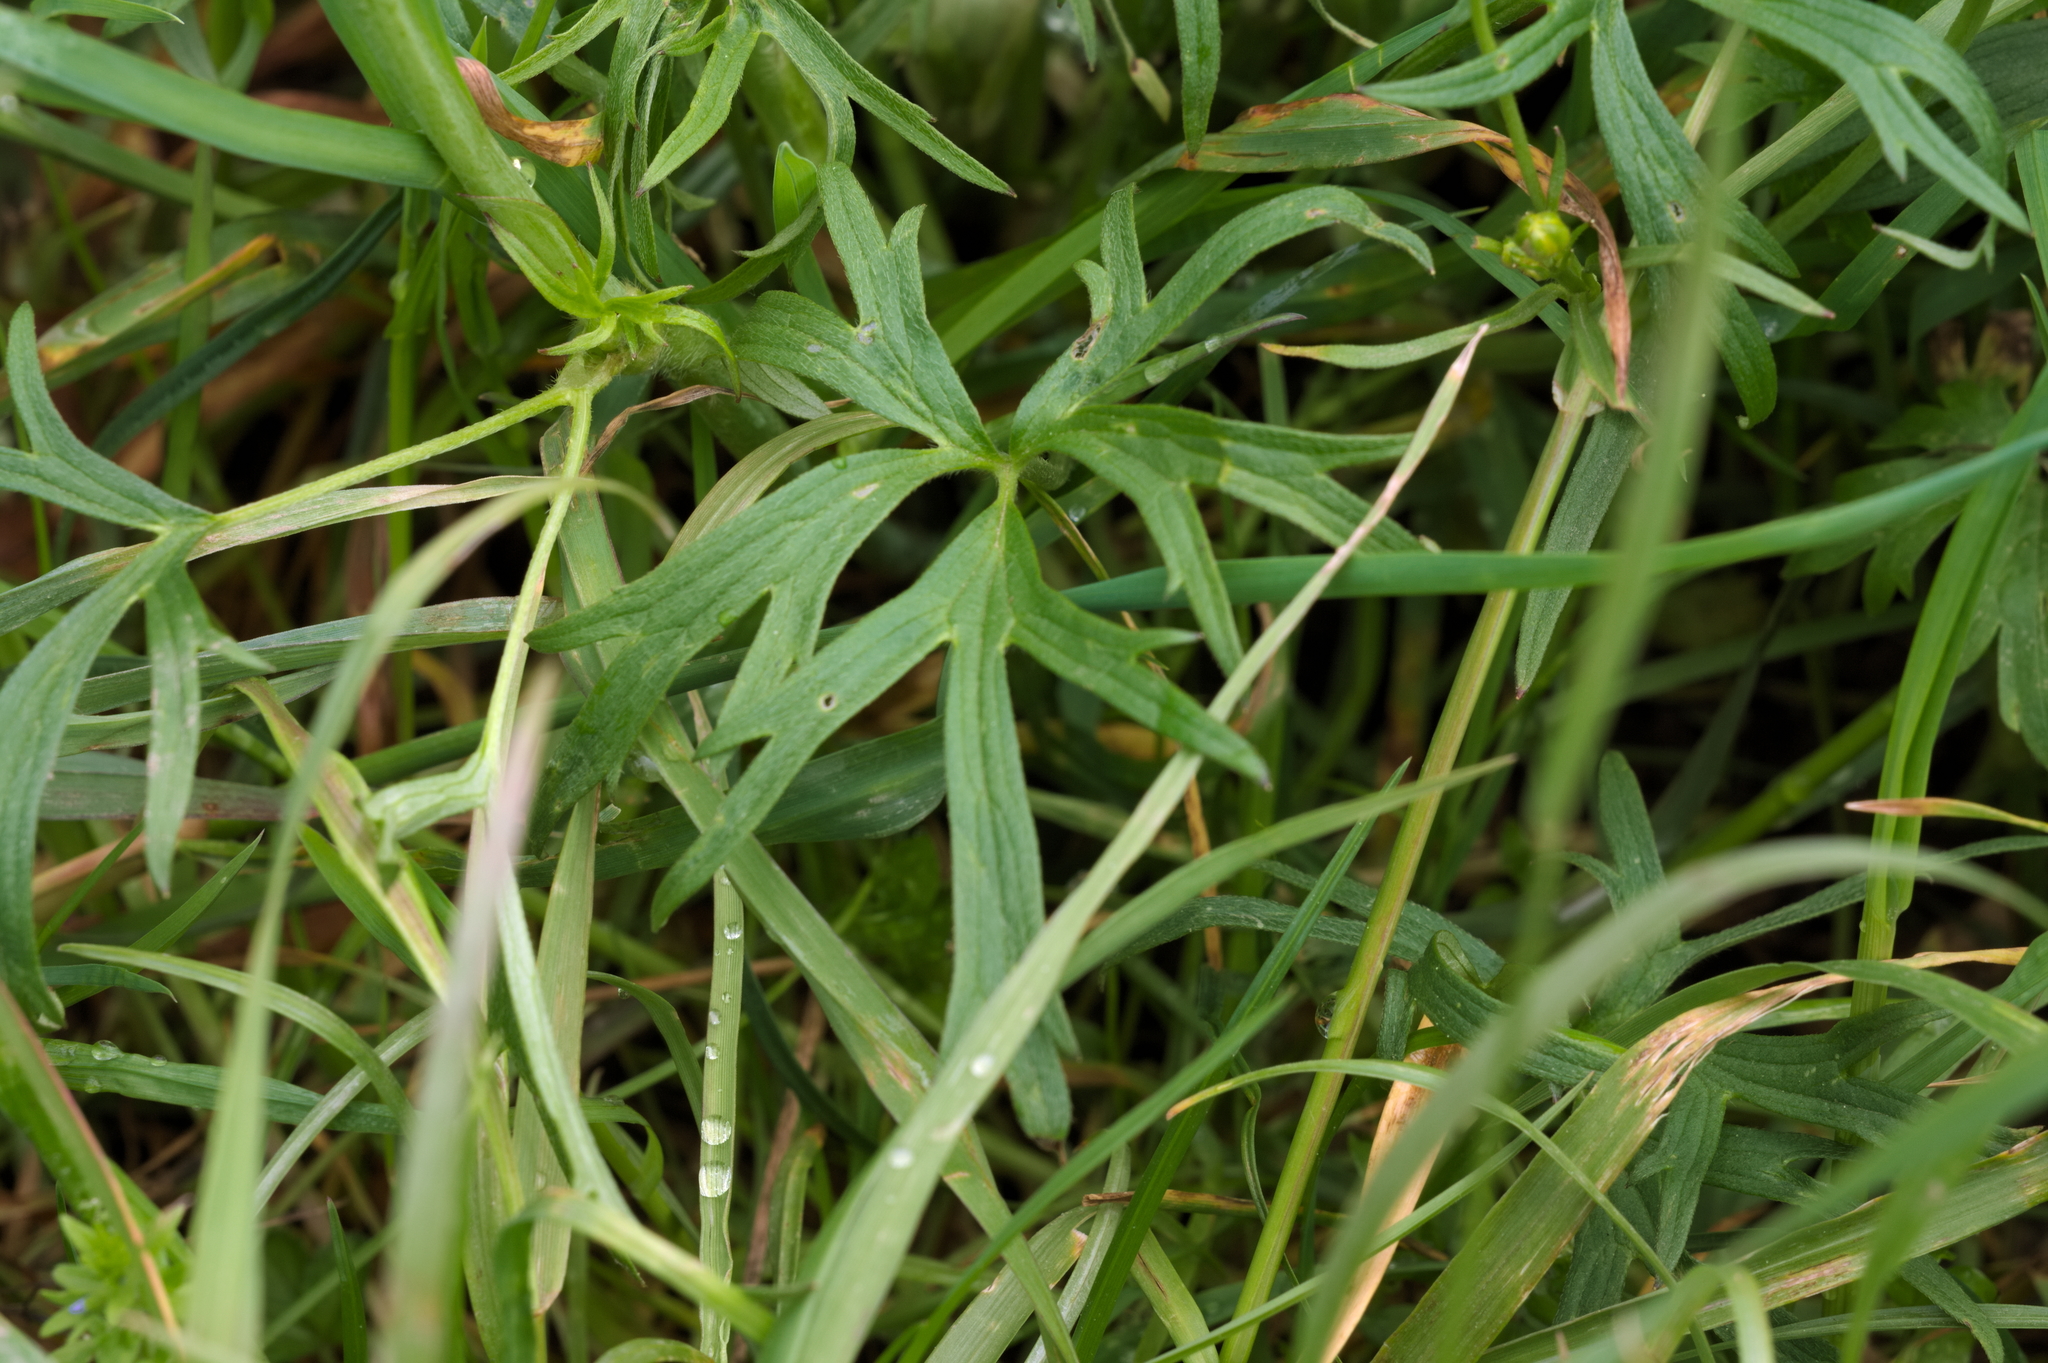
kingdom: Plantae
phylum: Tracheophyta
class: Magnoliopsida
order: Ranunculales
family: Ranunculaceae
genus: Ranunculus
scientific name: Ranunculus acris
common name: Meadow buttercup
